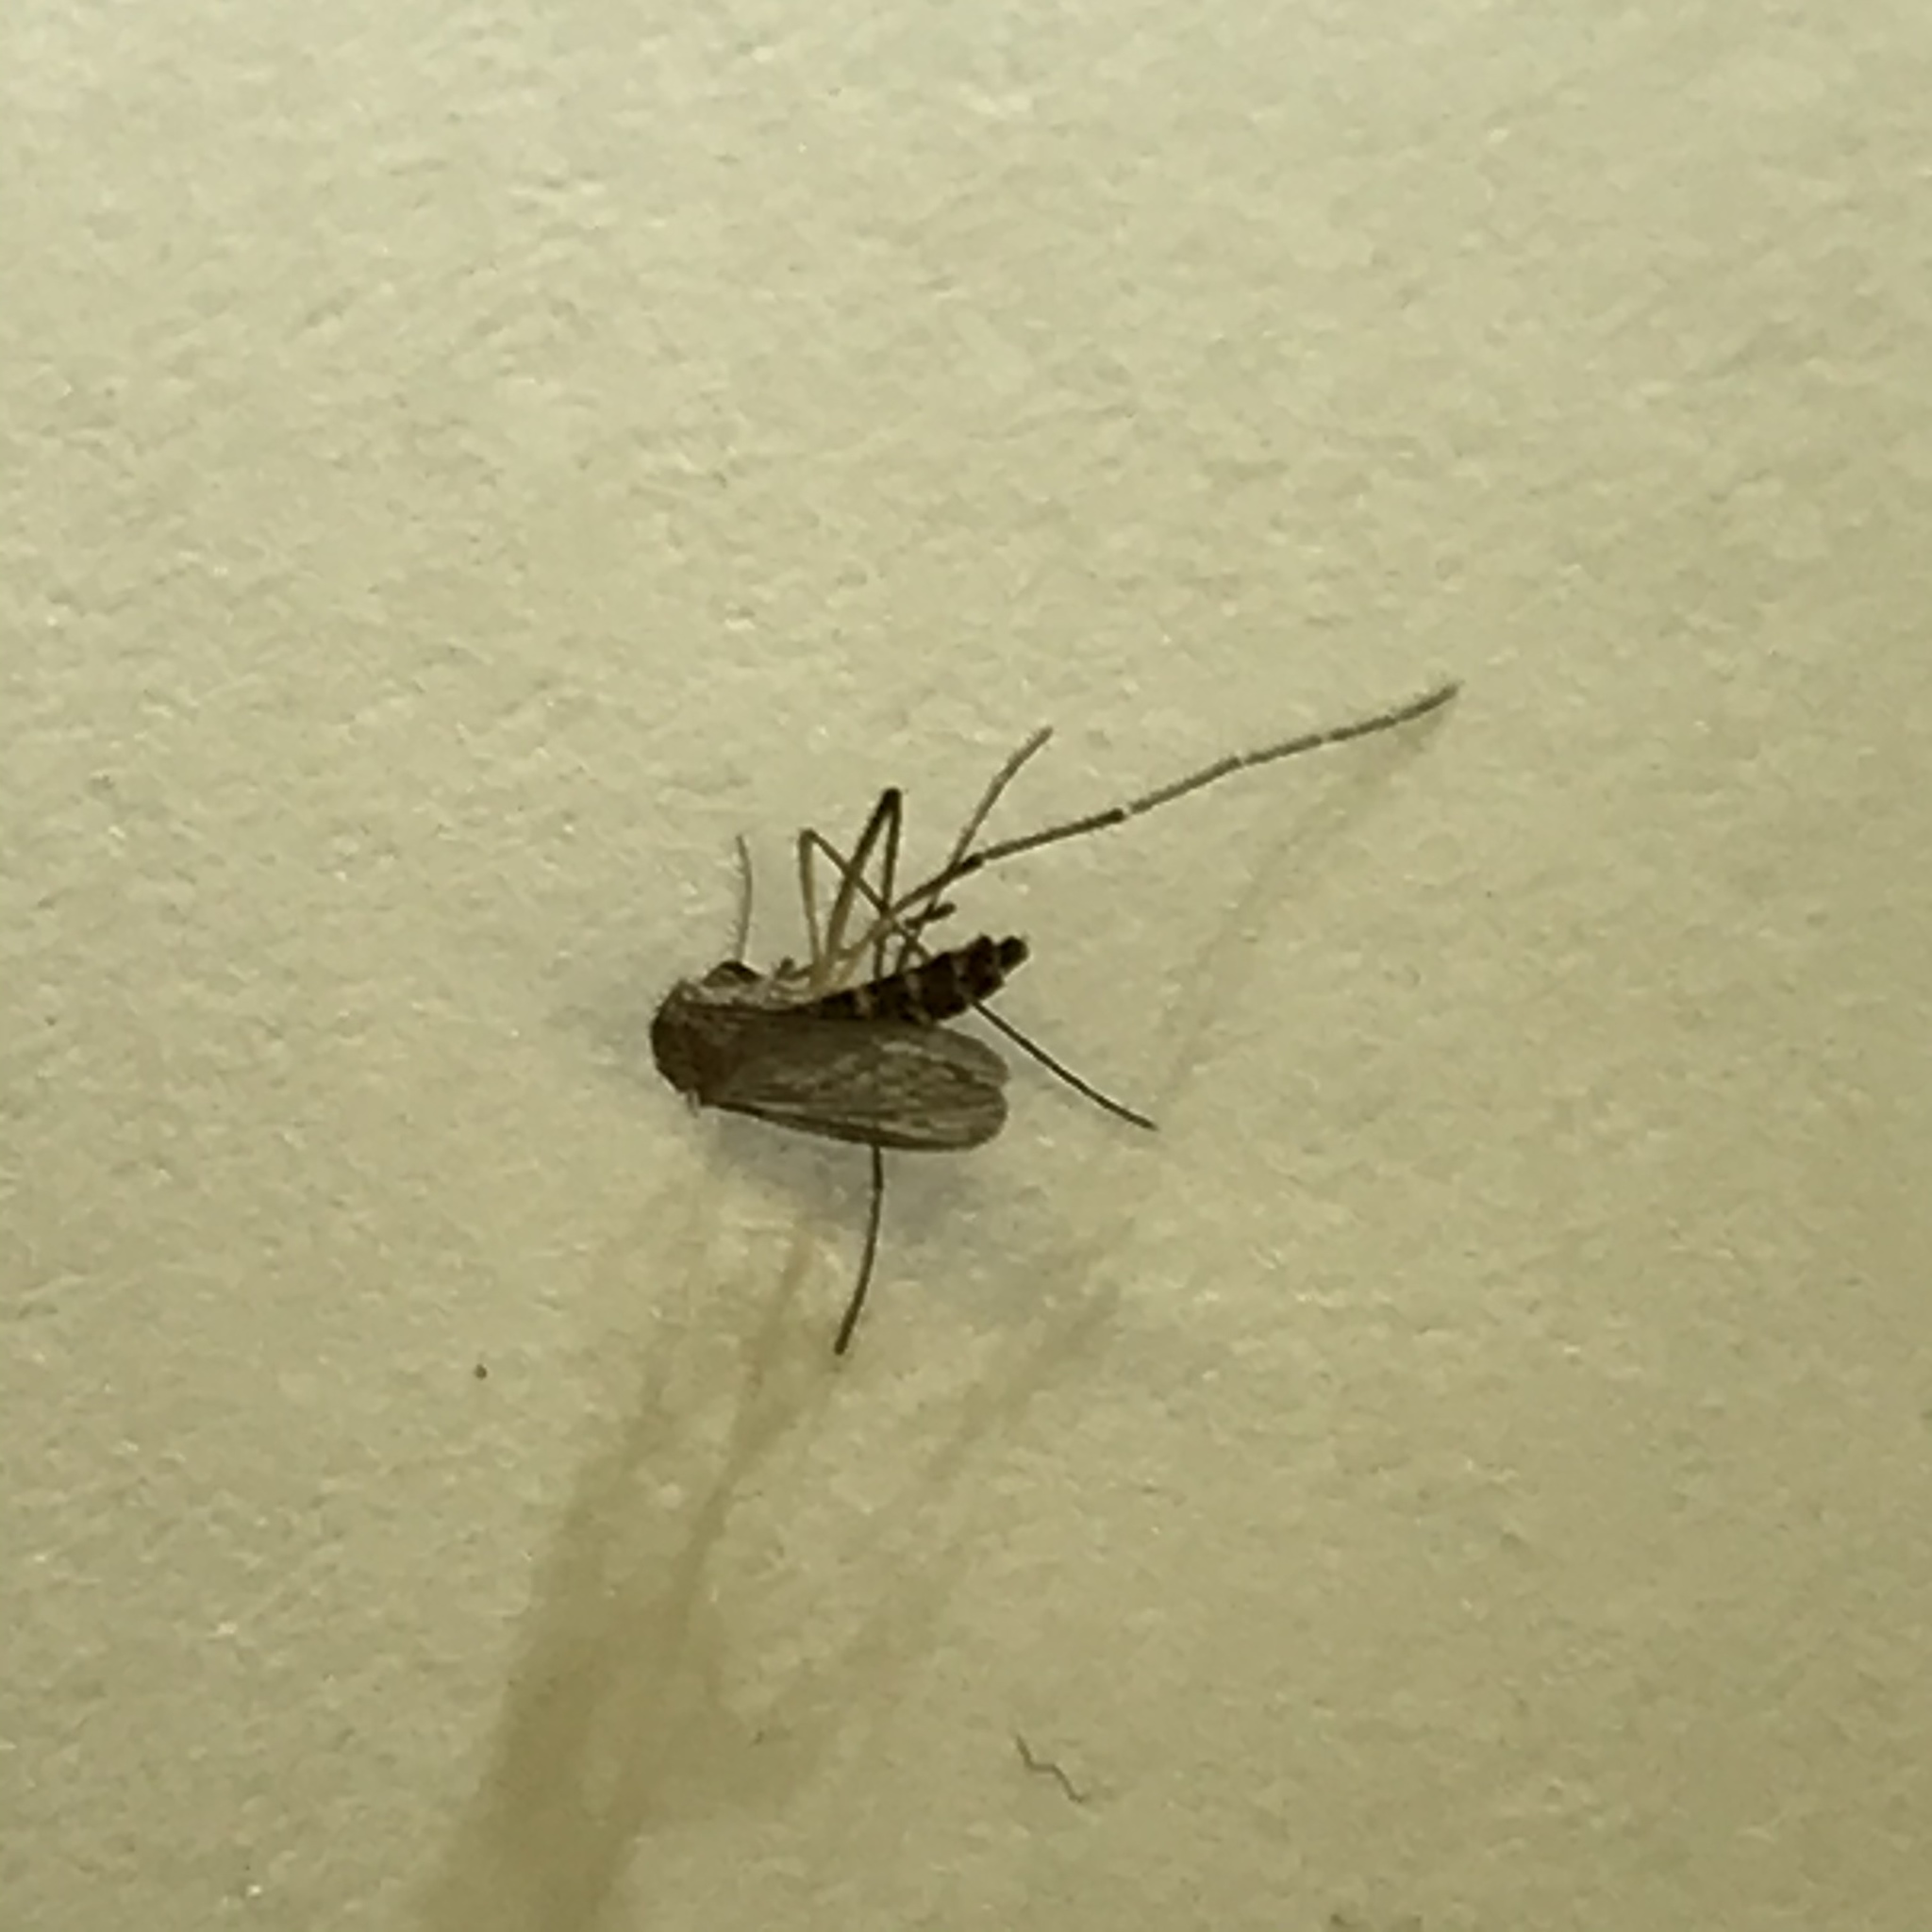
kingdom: Animalia
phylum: Arthropoda
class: Insecta
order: Diptera
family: Culicidae
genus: Aedes
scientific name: Aedes vexans
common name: Inland floodwater mosquito
